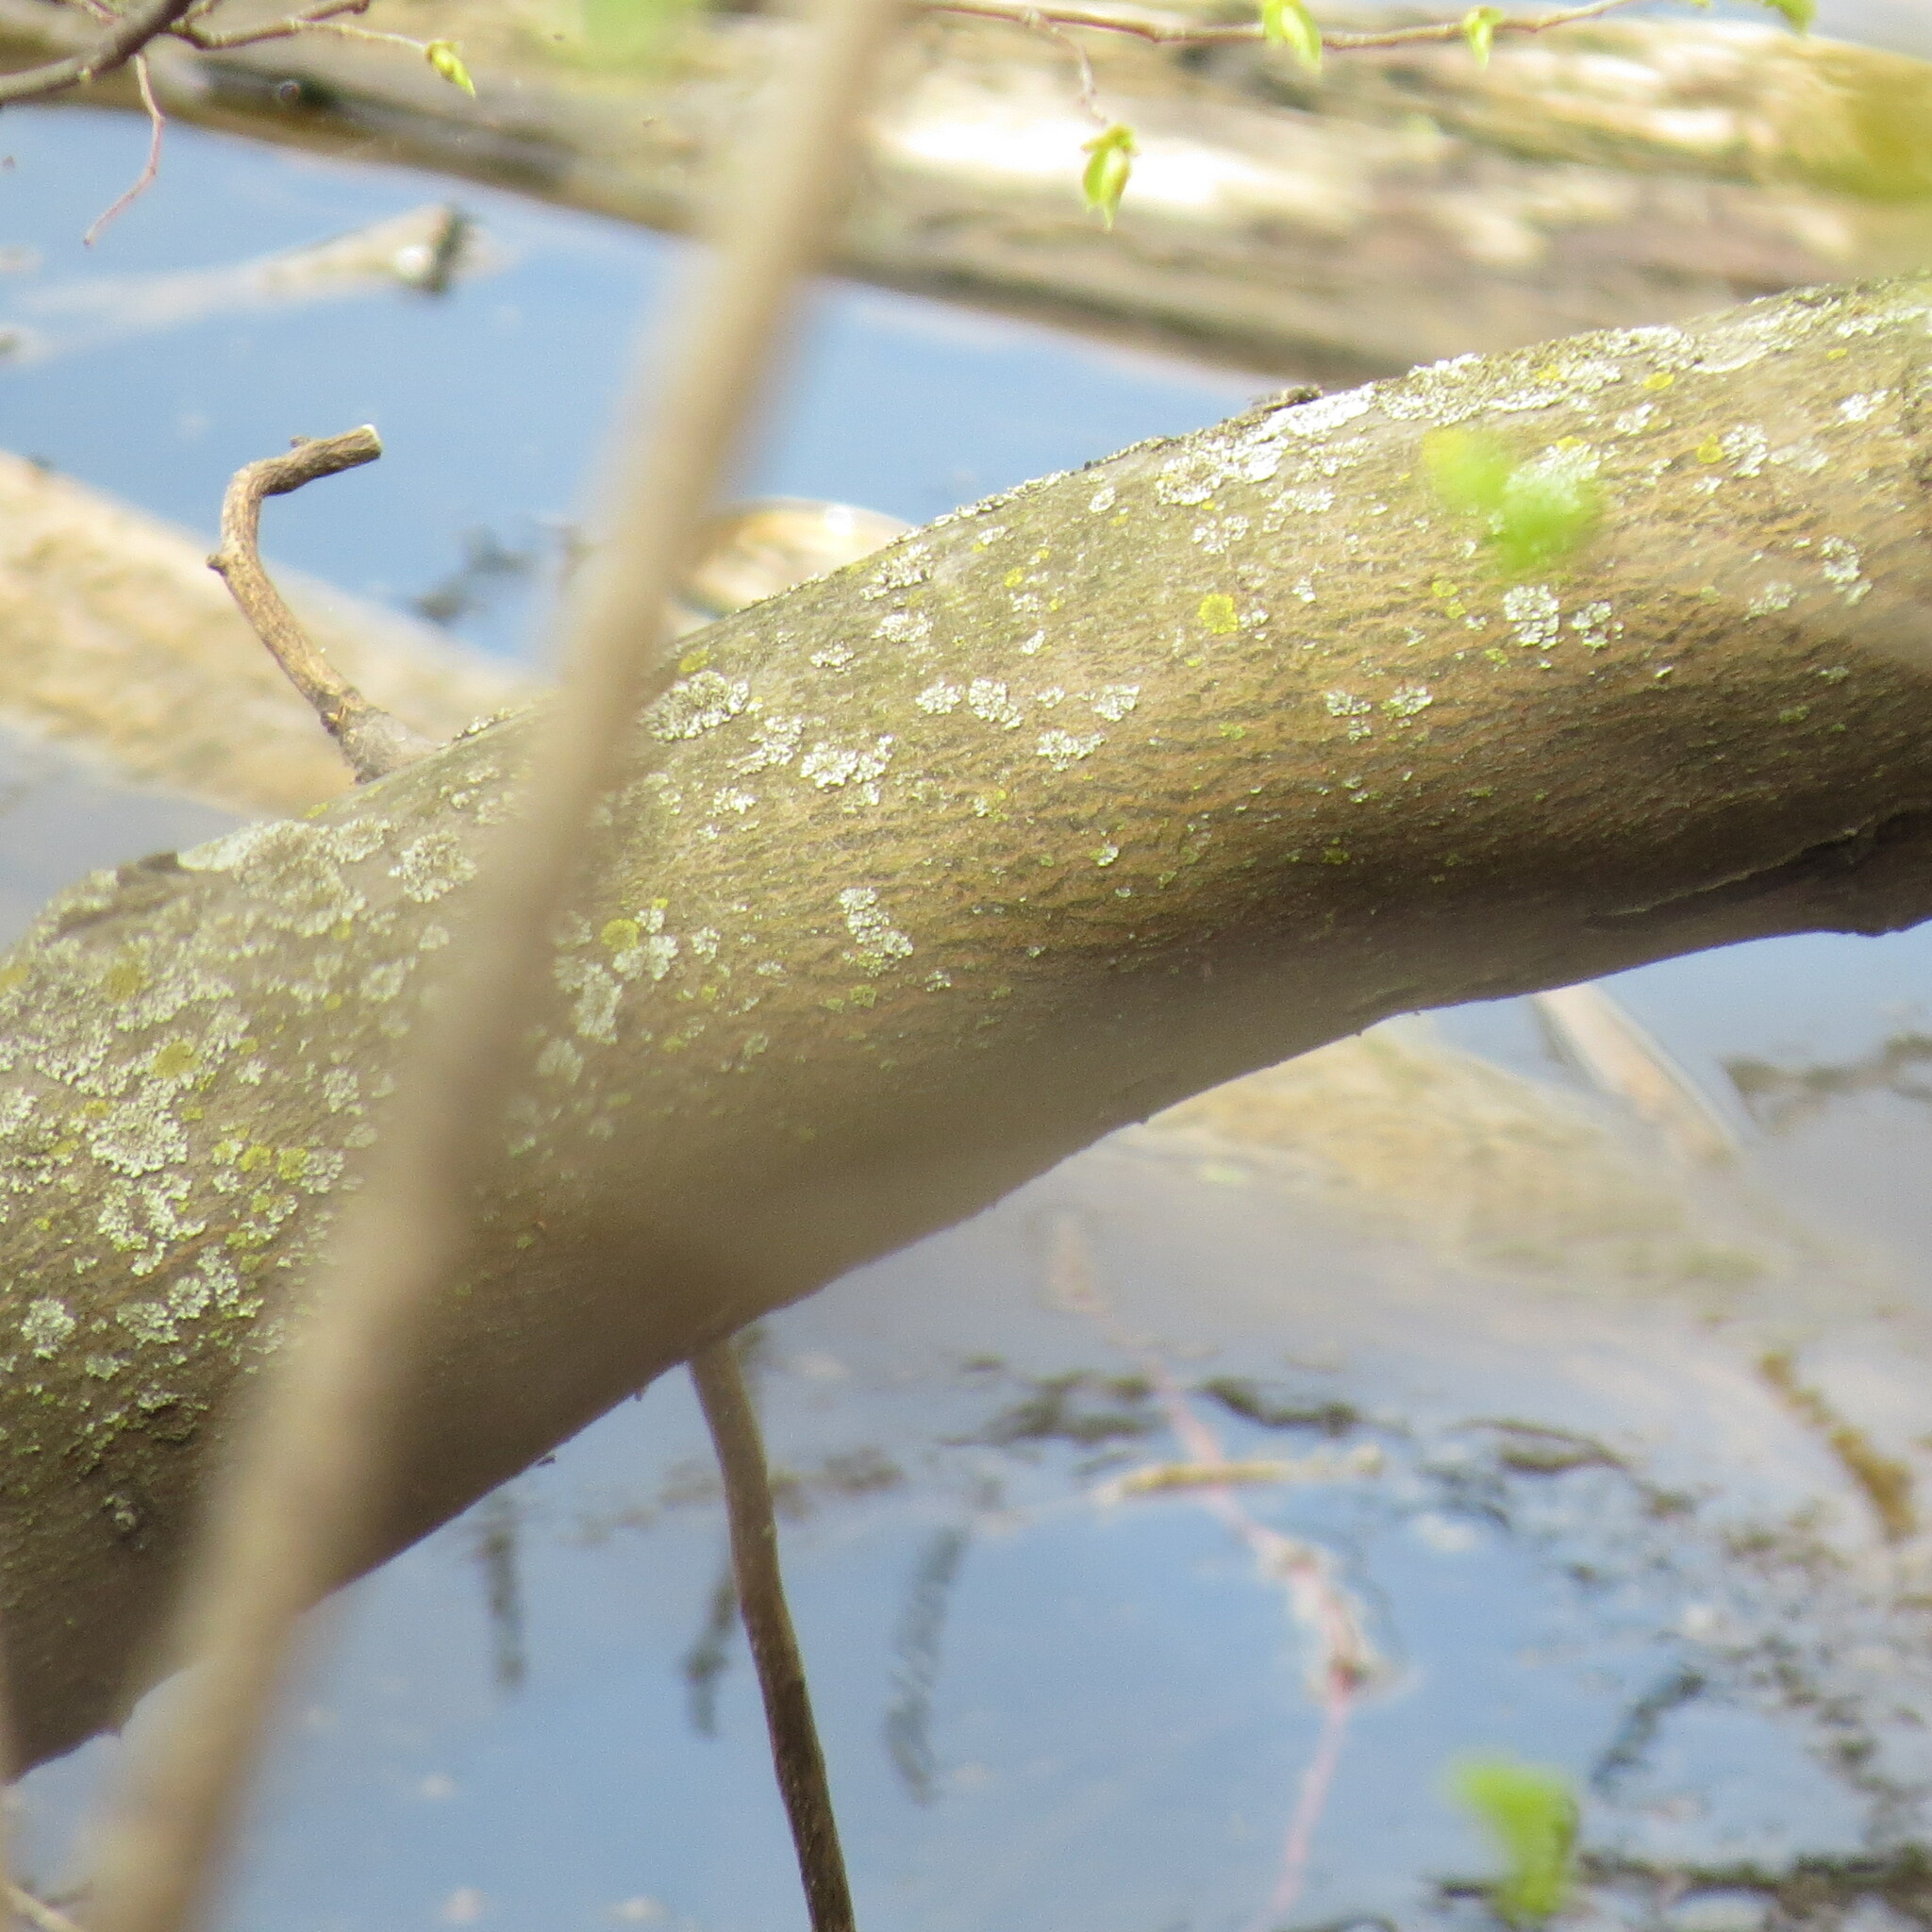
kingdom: Plantae
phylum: Tracheophyta
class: Magnoliopsida
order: Rosales
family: Rosaceae
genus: Amelanchier
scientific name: Amelanchier arborea
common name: Downy serviceberry
